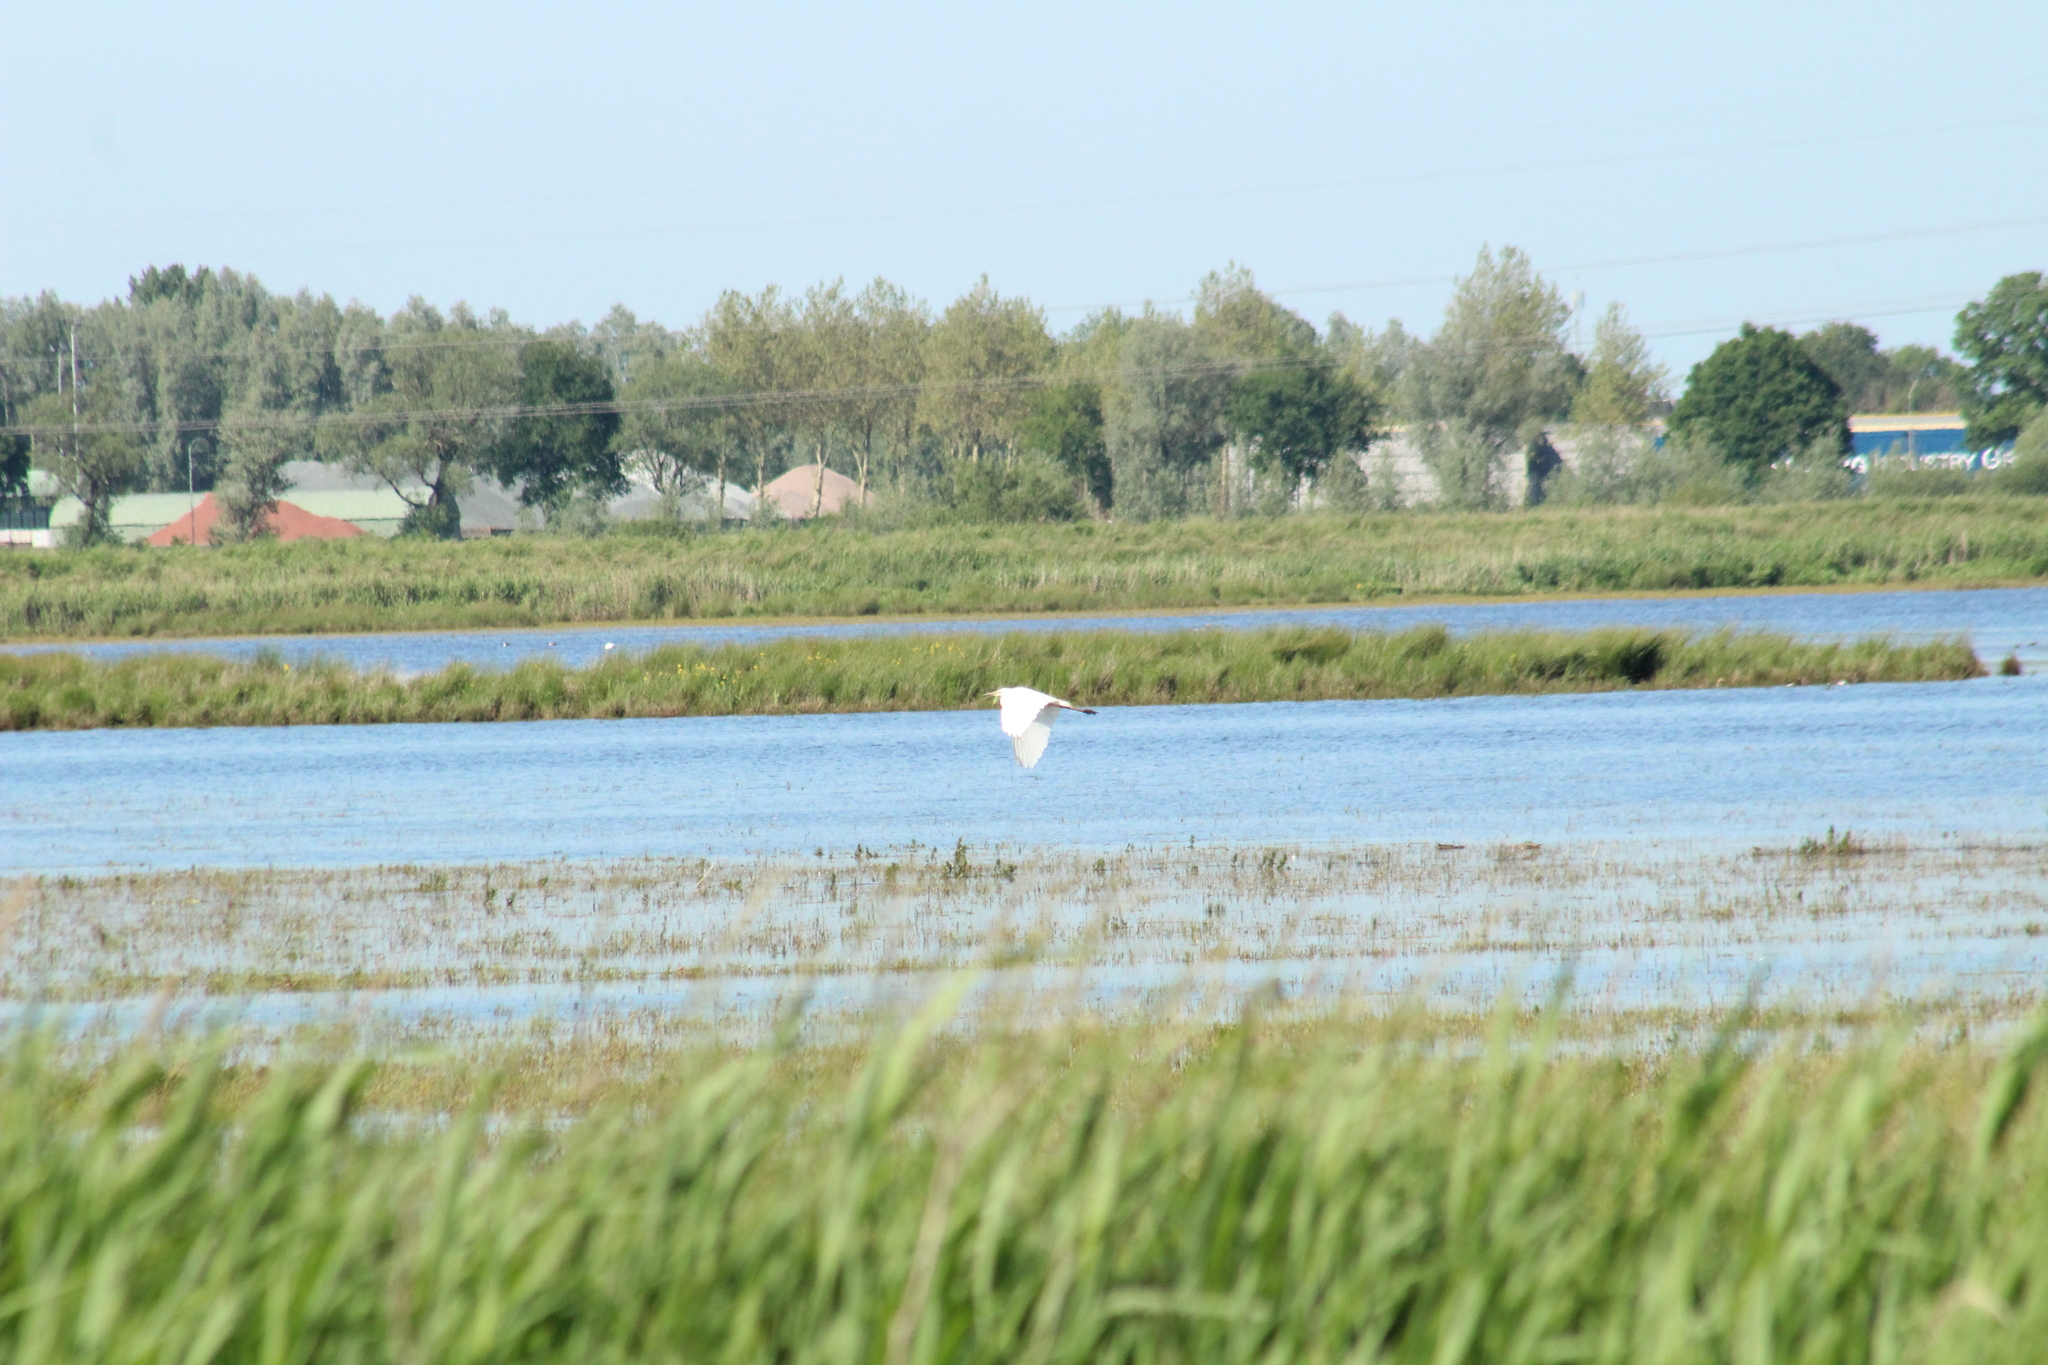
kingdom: Animalia
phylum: Chordata
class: Aves
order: Pelecaniformes
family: Ardeidae
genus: Ardea
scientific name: Ardea alba
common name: Great egret
